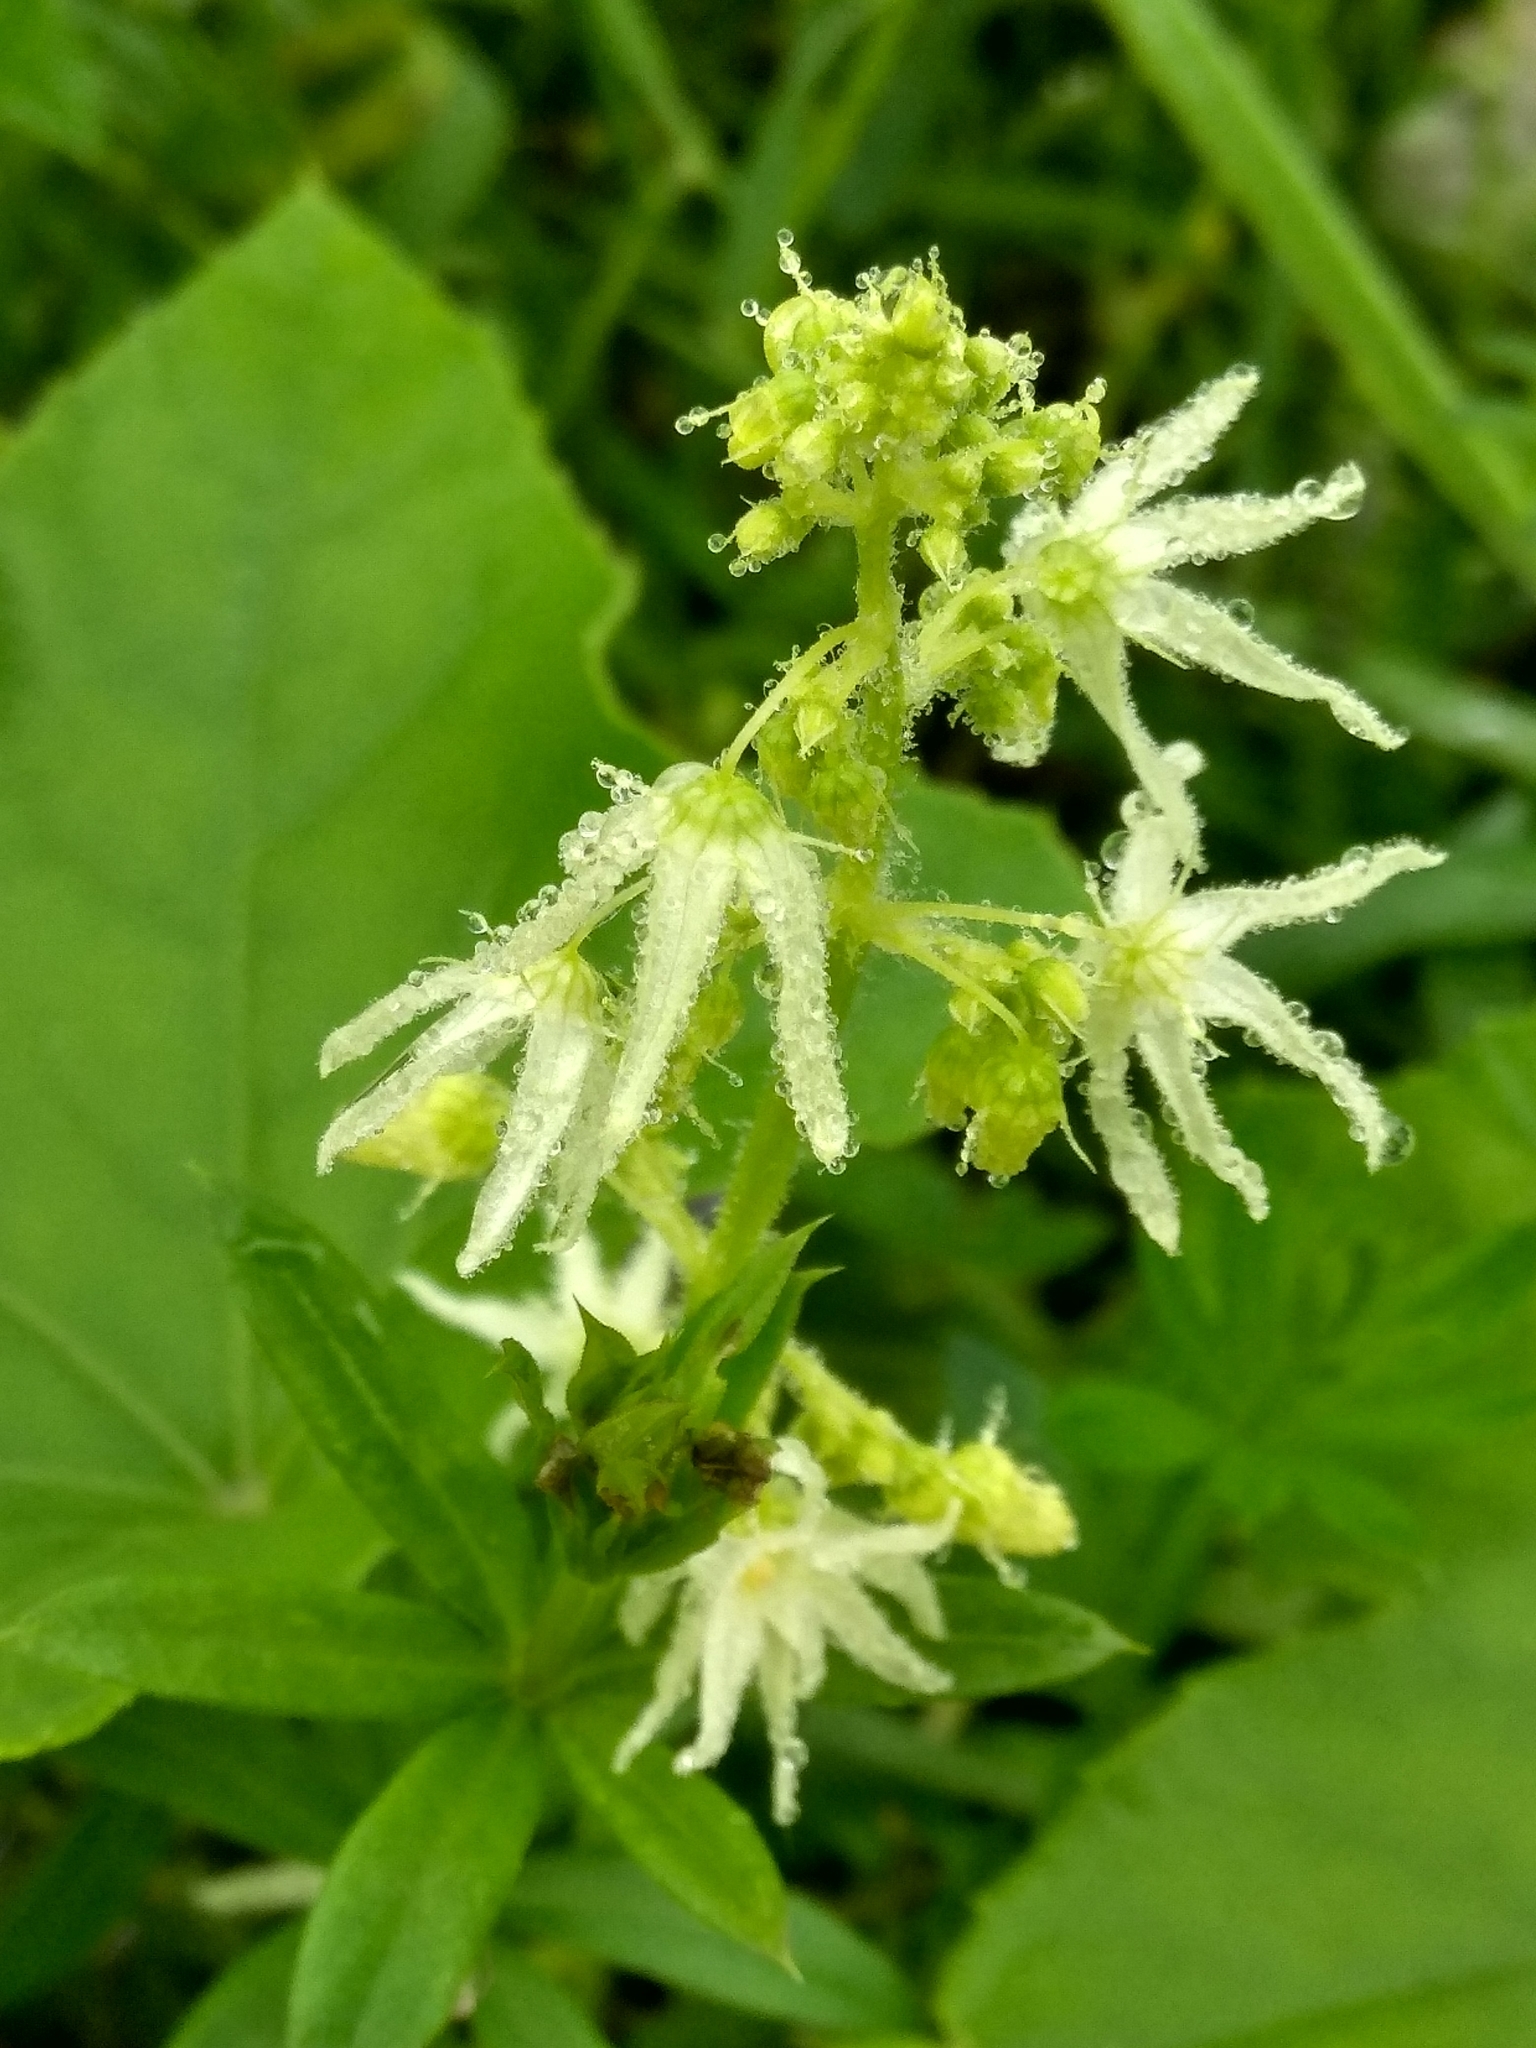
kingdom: Plantae
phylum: Tracheophyta
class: Magnoliopsida
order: Cucurbitales
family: Cucurbitaceae
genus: Echinocystis
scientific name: Echinocystis lobata
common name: Wild cucumber
